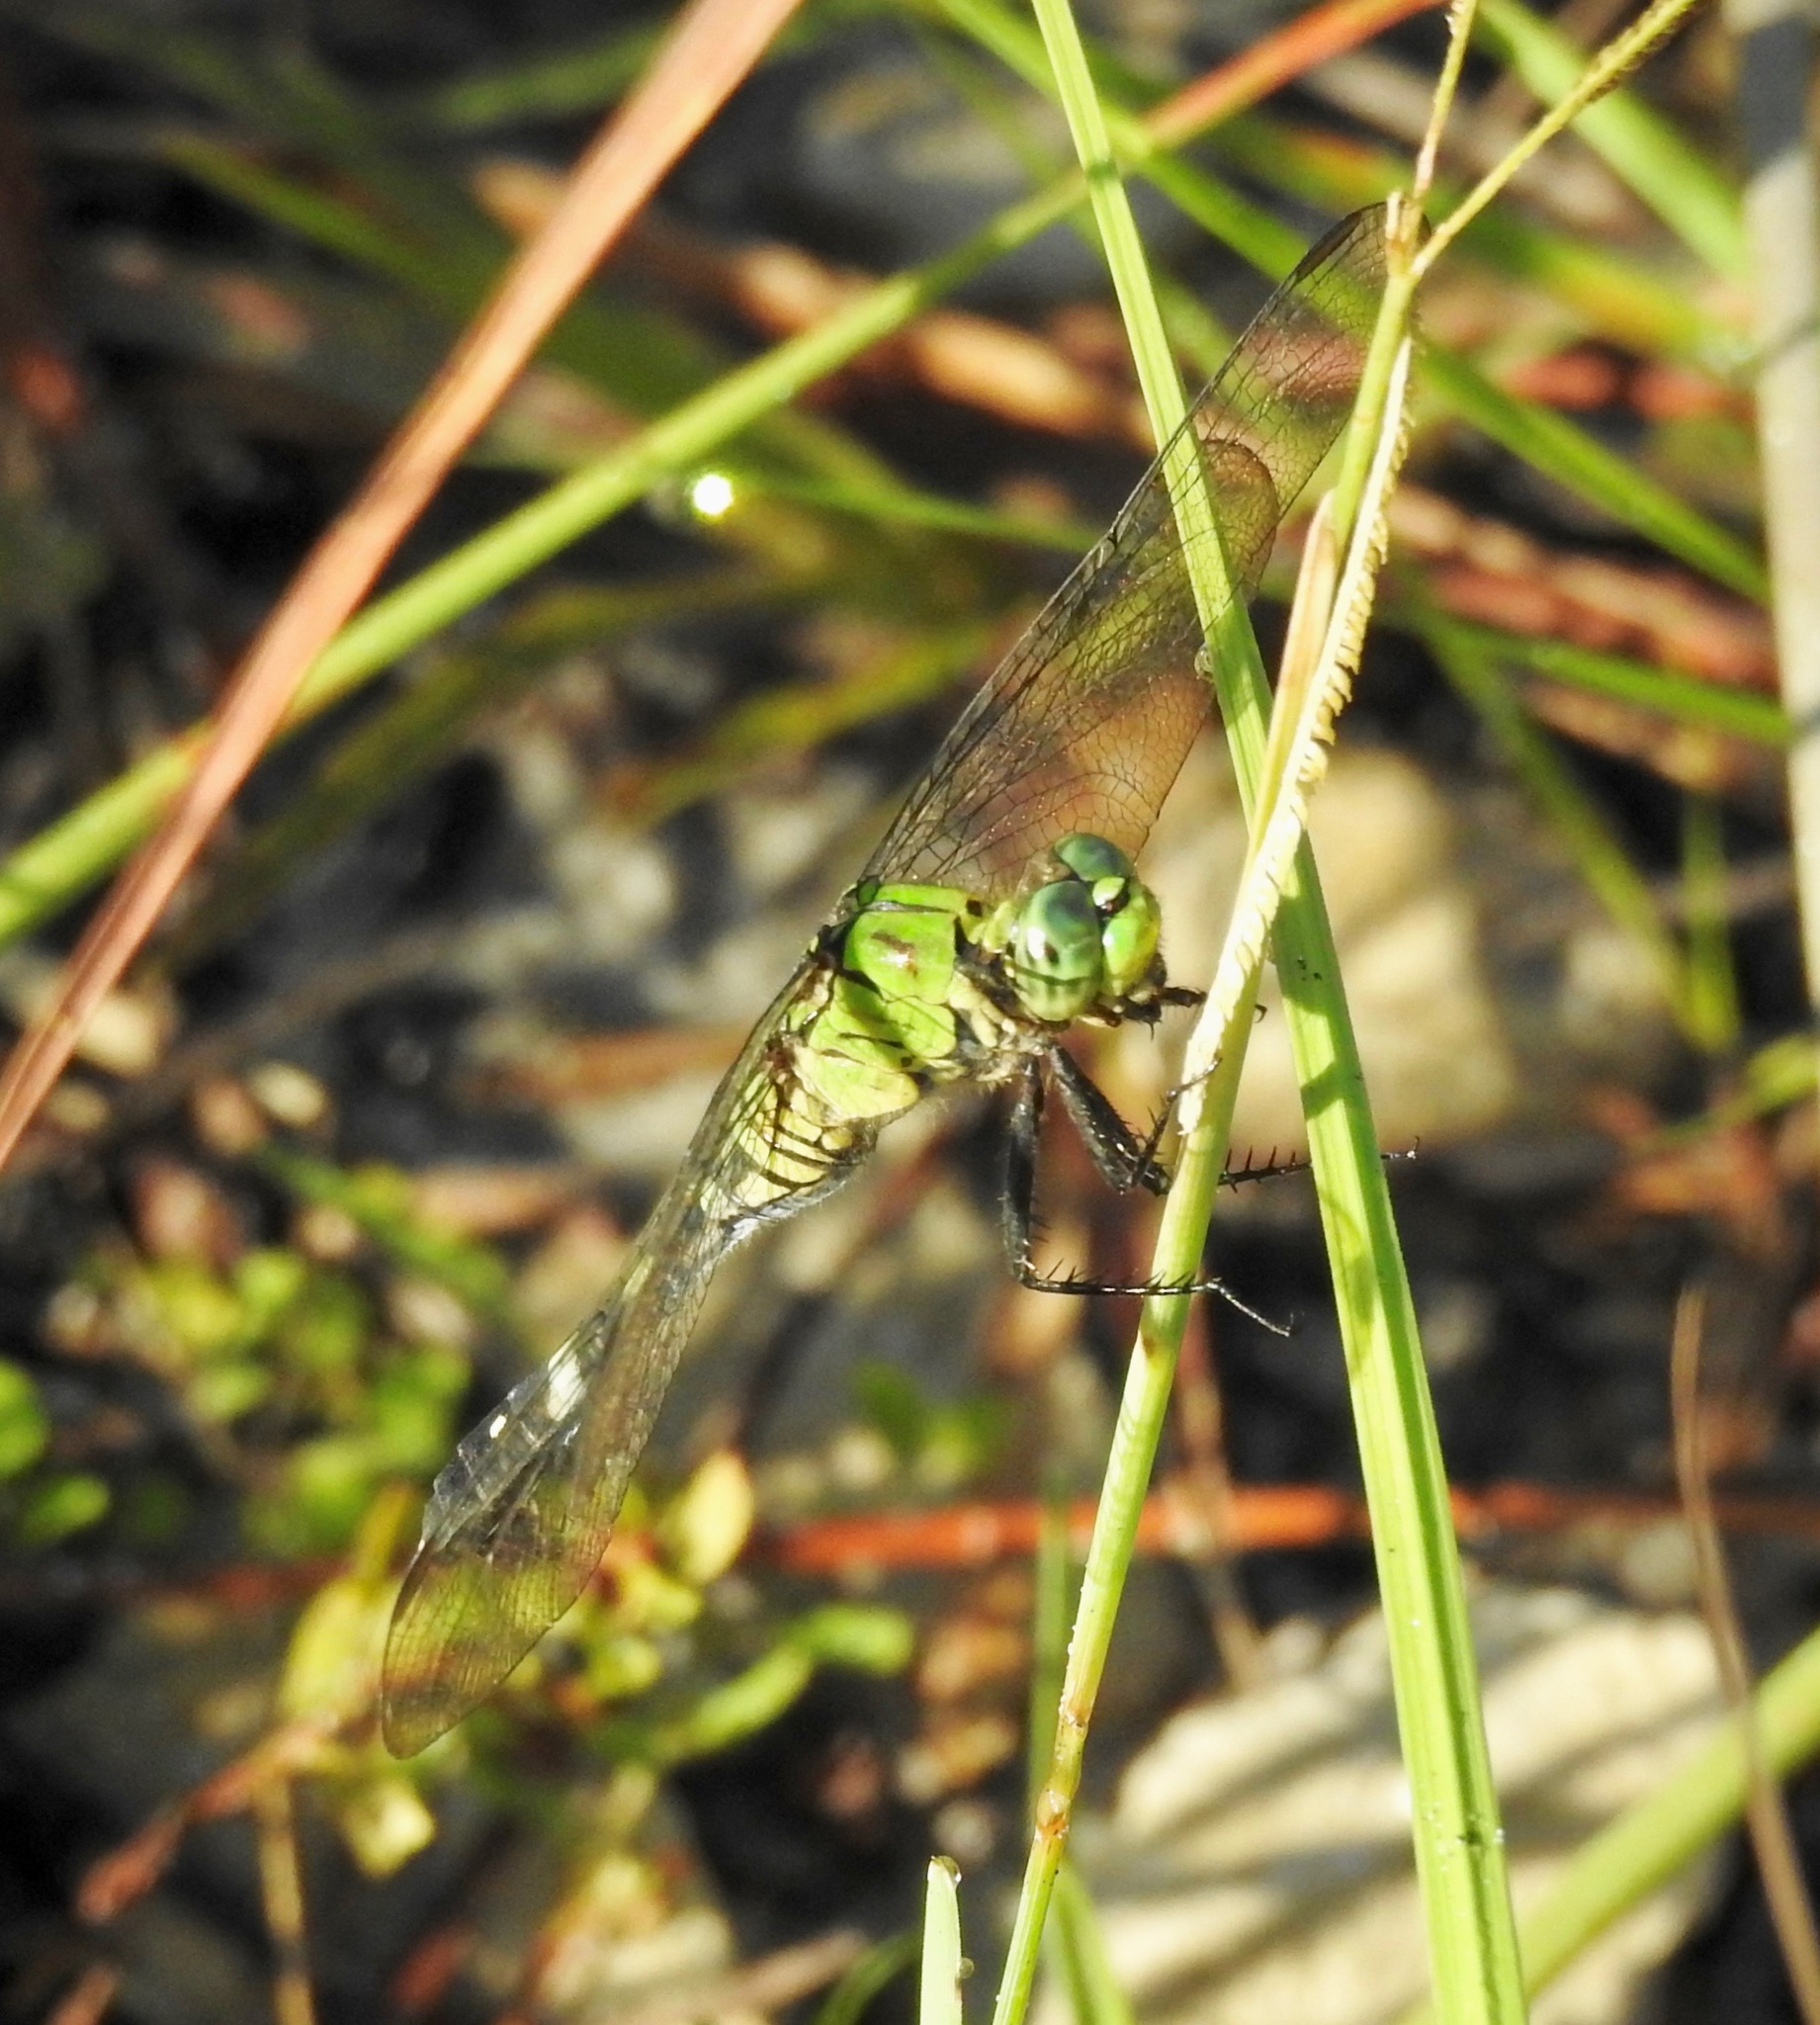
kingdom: Animalia
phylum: Arthropoda
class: Insecta
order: Odonata
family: Libellulidae
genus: Erythemis
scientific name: Erythemis simplicicollis
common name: Eastern pondhawk
